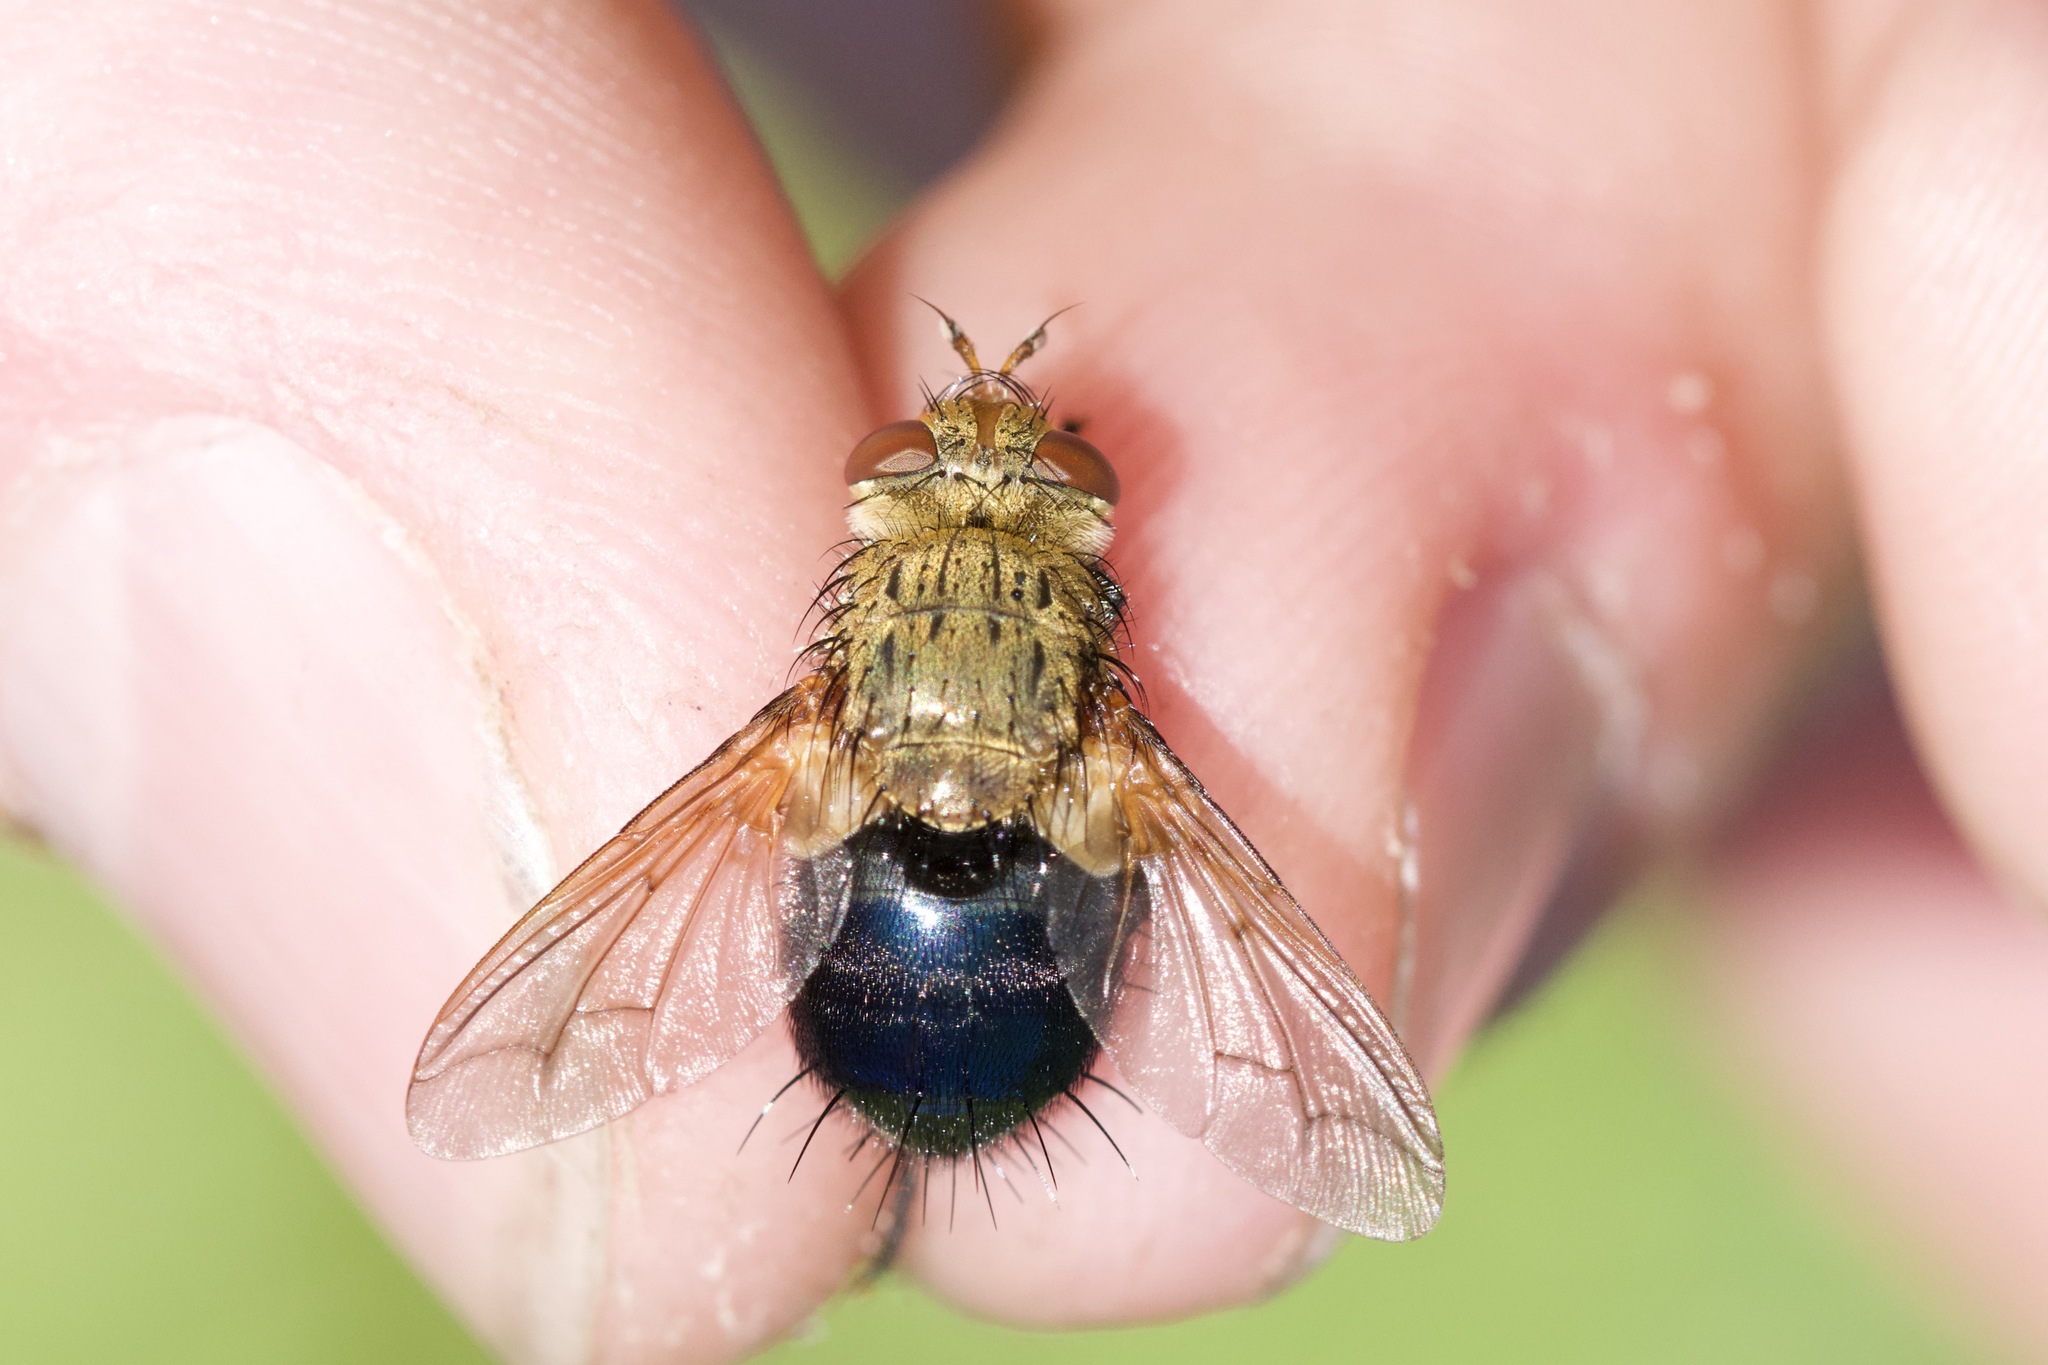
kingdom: Animalia
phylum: Arthropoda
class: Insecta
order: Diptera
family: Tachinidae
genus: Archytas
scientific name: Archytas apicifer
